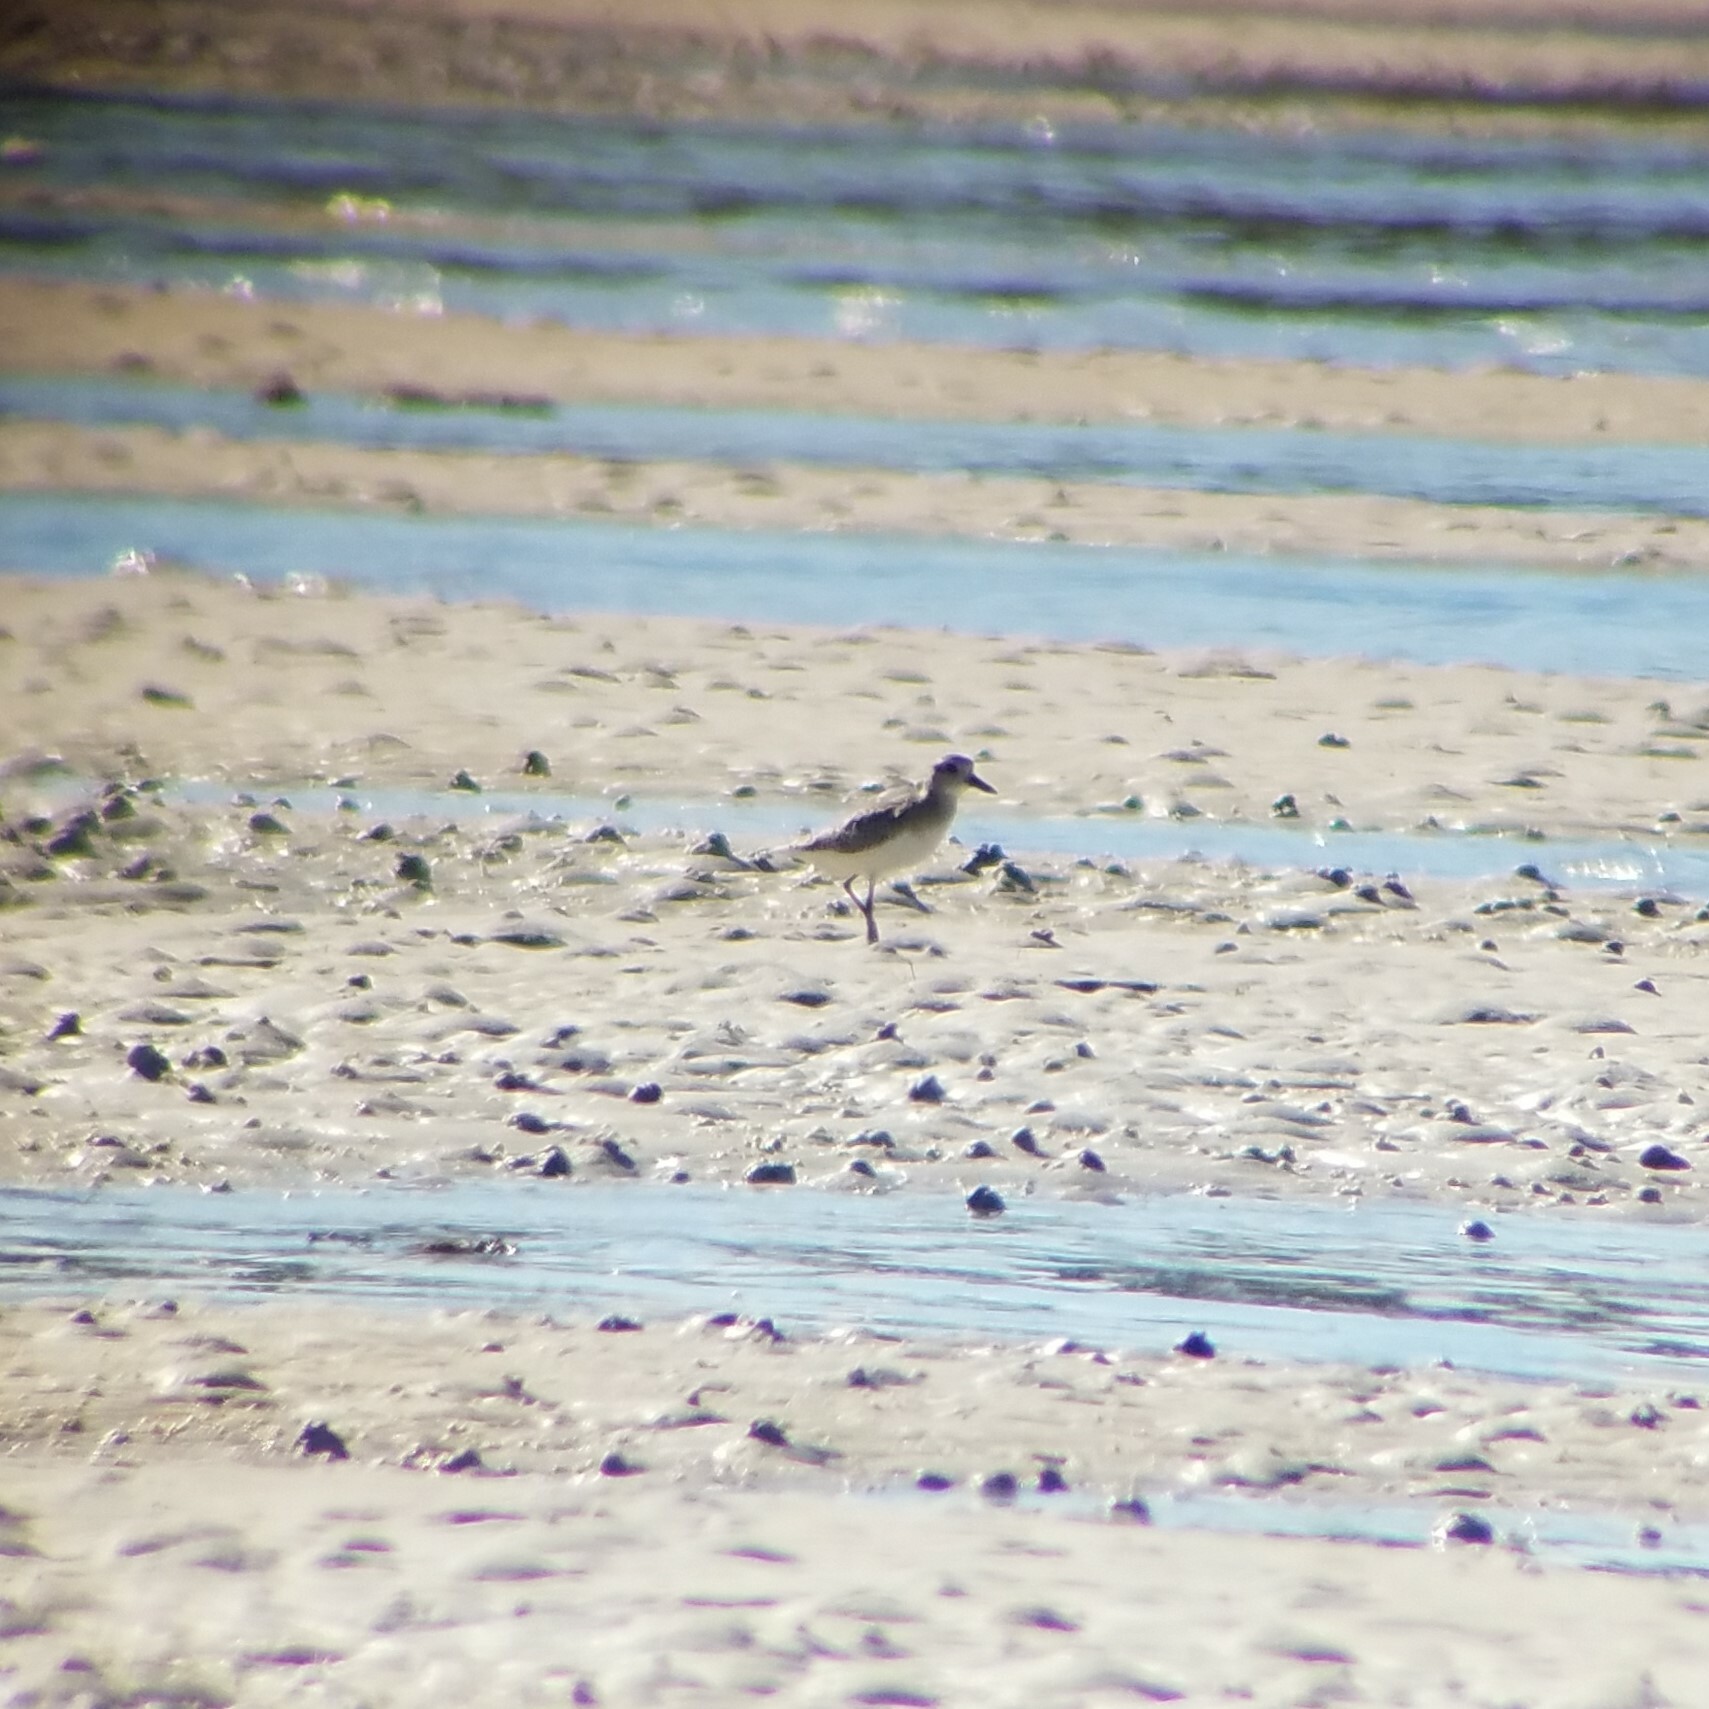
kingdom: Animalia
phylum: Chordata
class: Aves
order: Charadriiformes
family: Charadriidae
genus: Pluvialis
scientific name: Pluvialis squatarola
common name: Grey plover
